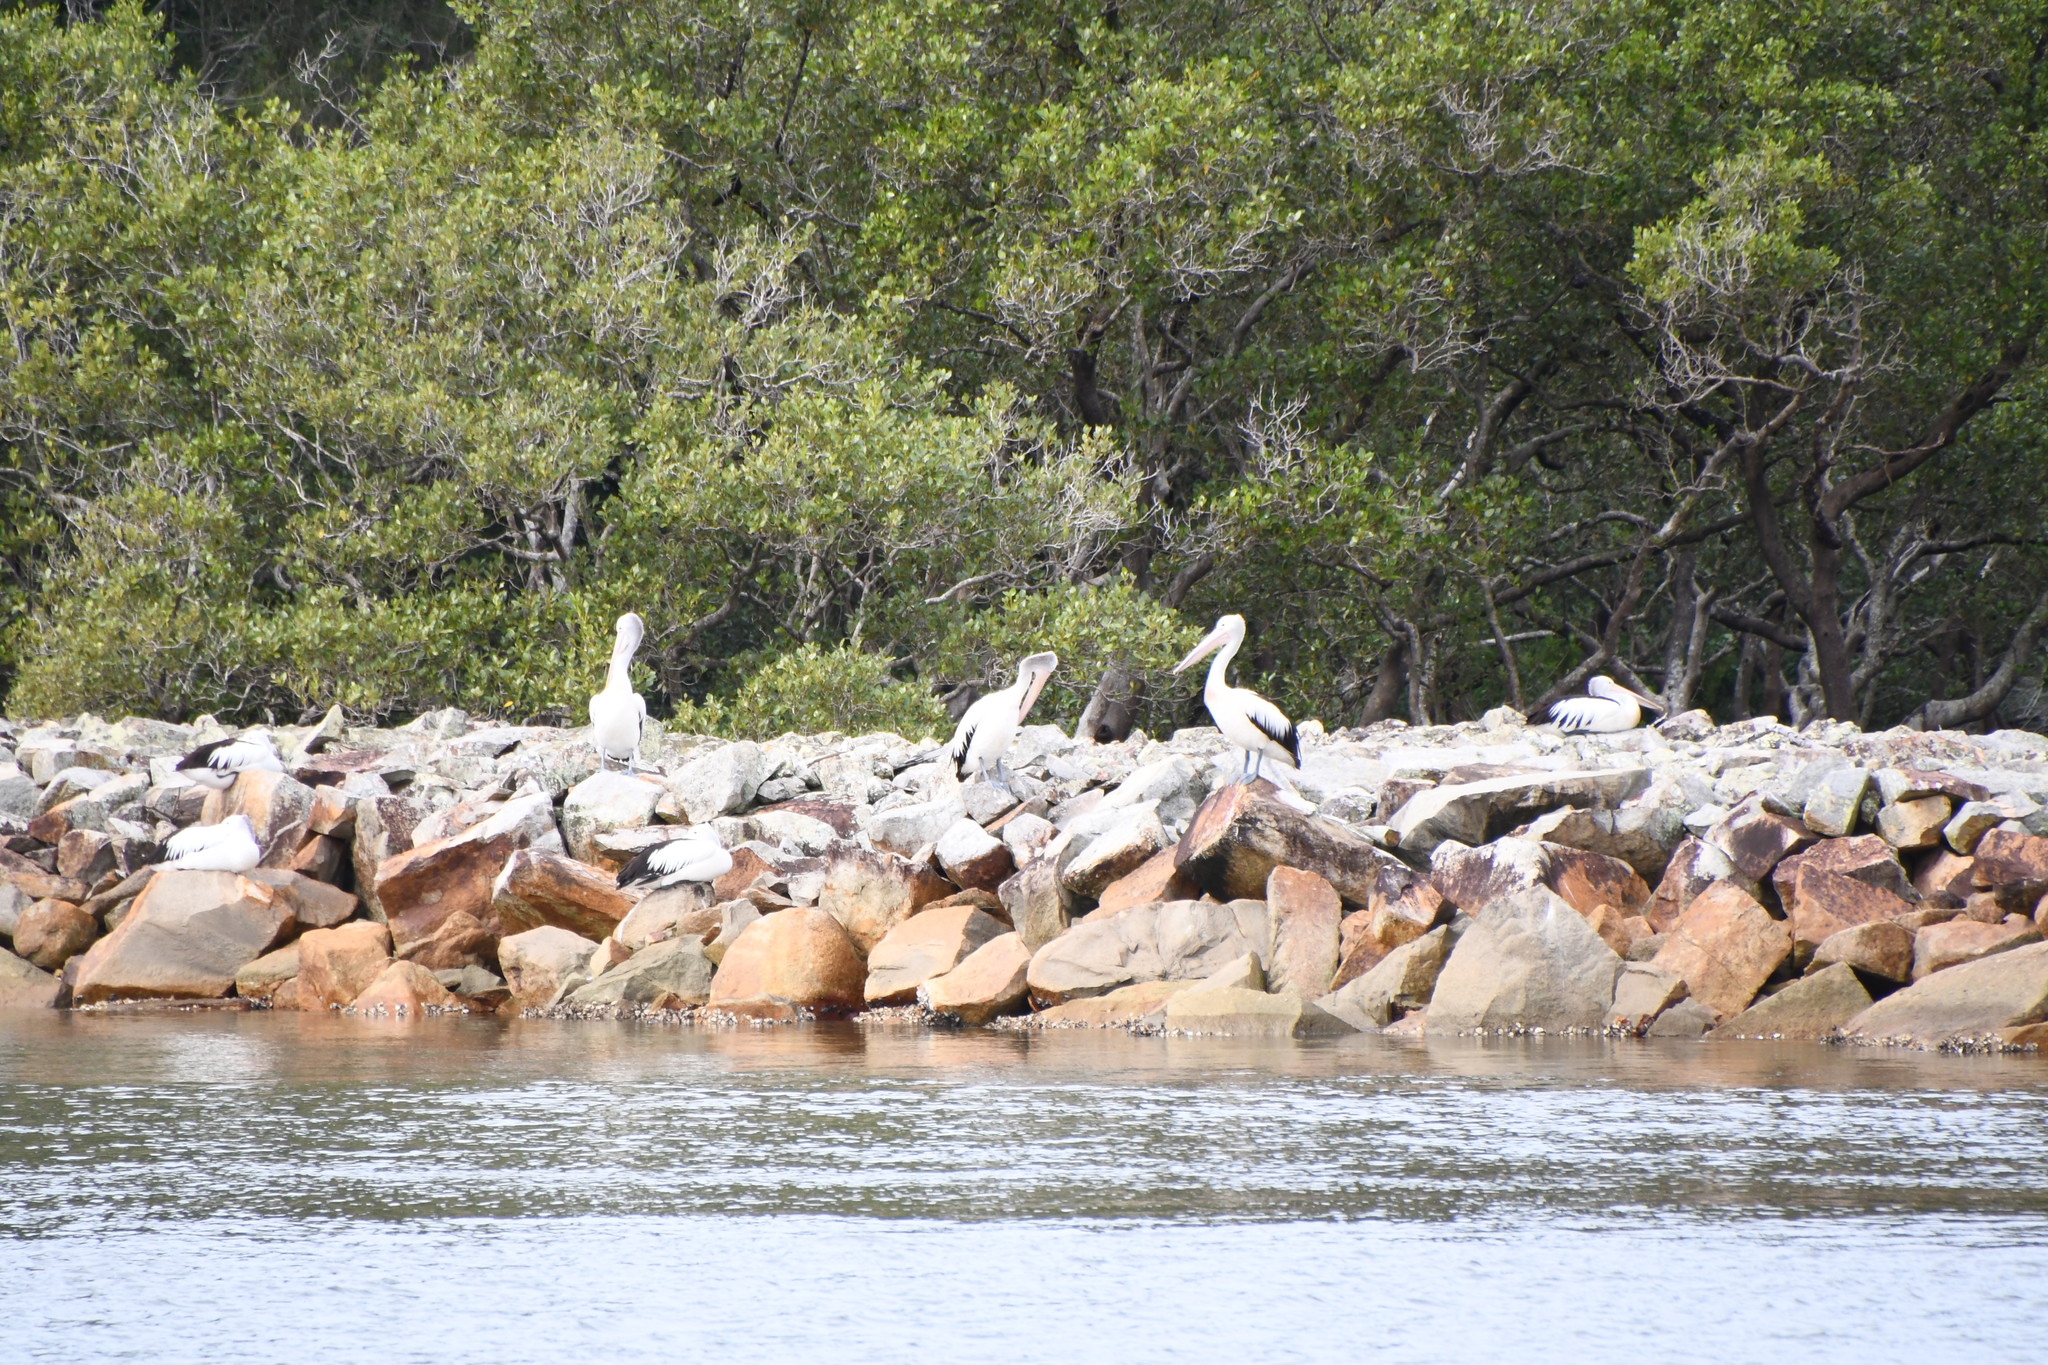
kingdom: Animalia
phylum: Chordata
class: Aves
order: Pelecaniformes
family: Pelecanidae
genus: Pelecanus
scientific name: Pelecanus conspicillatus
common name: Australian pelican
